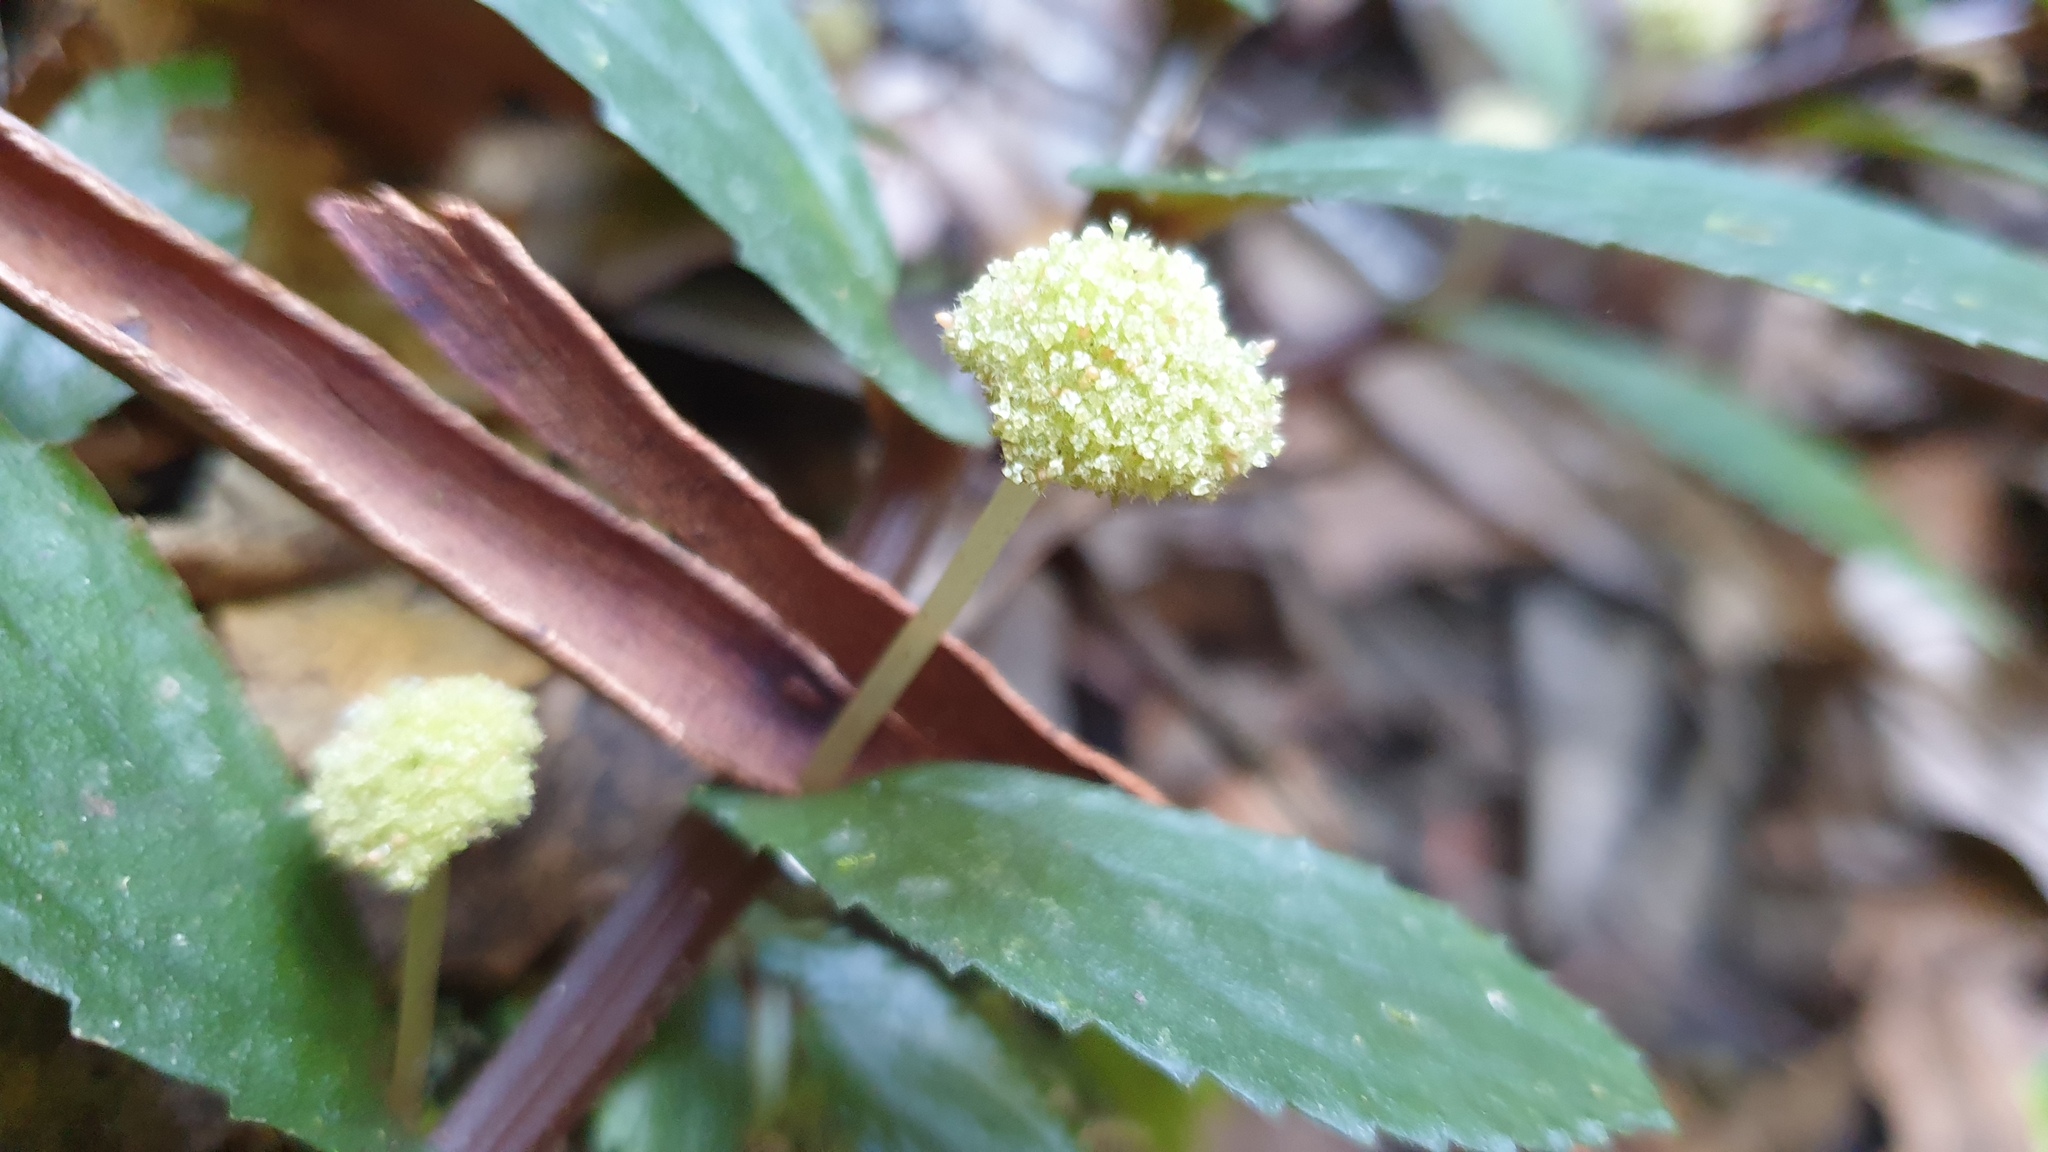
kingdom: Plantae
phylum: Tracheophyta
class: Magnoliopsida
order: Rosales
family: Urticaceae
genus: Elatostema
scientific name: Elatostema reticulatum
